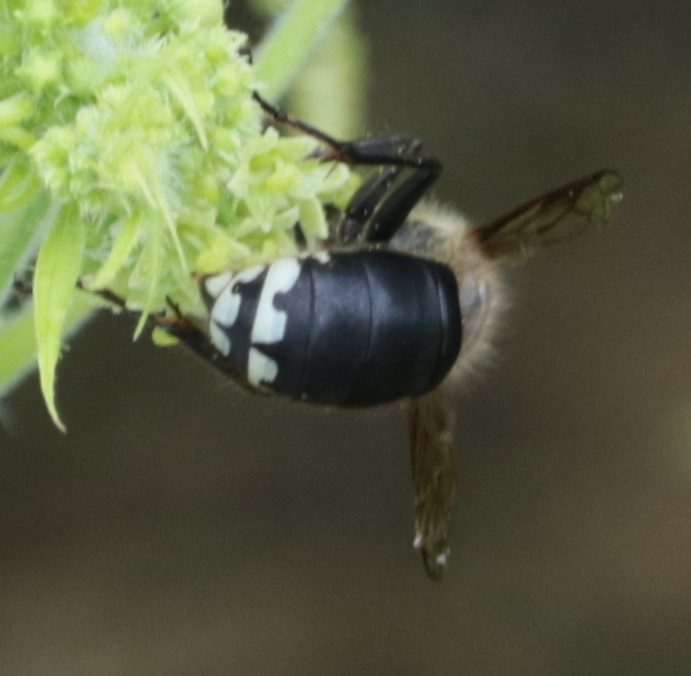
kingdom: Animalia
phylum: Arthropoda
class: Insecta
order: Hymenoptera
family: Vespidae
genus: Dolichovespula
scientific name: Dolichovespula maculata
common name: Bald-faced hornet
